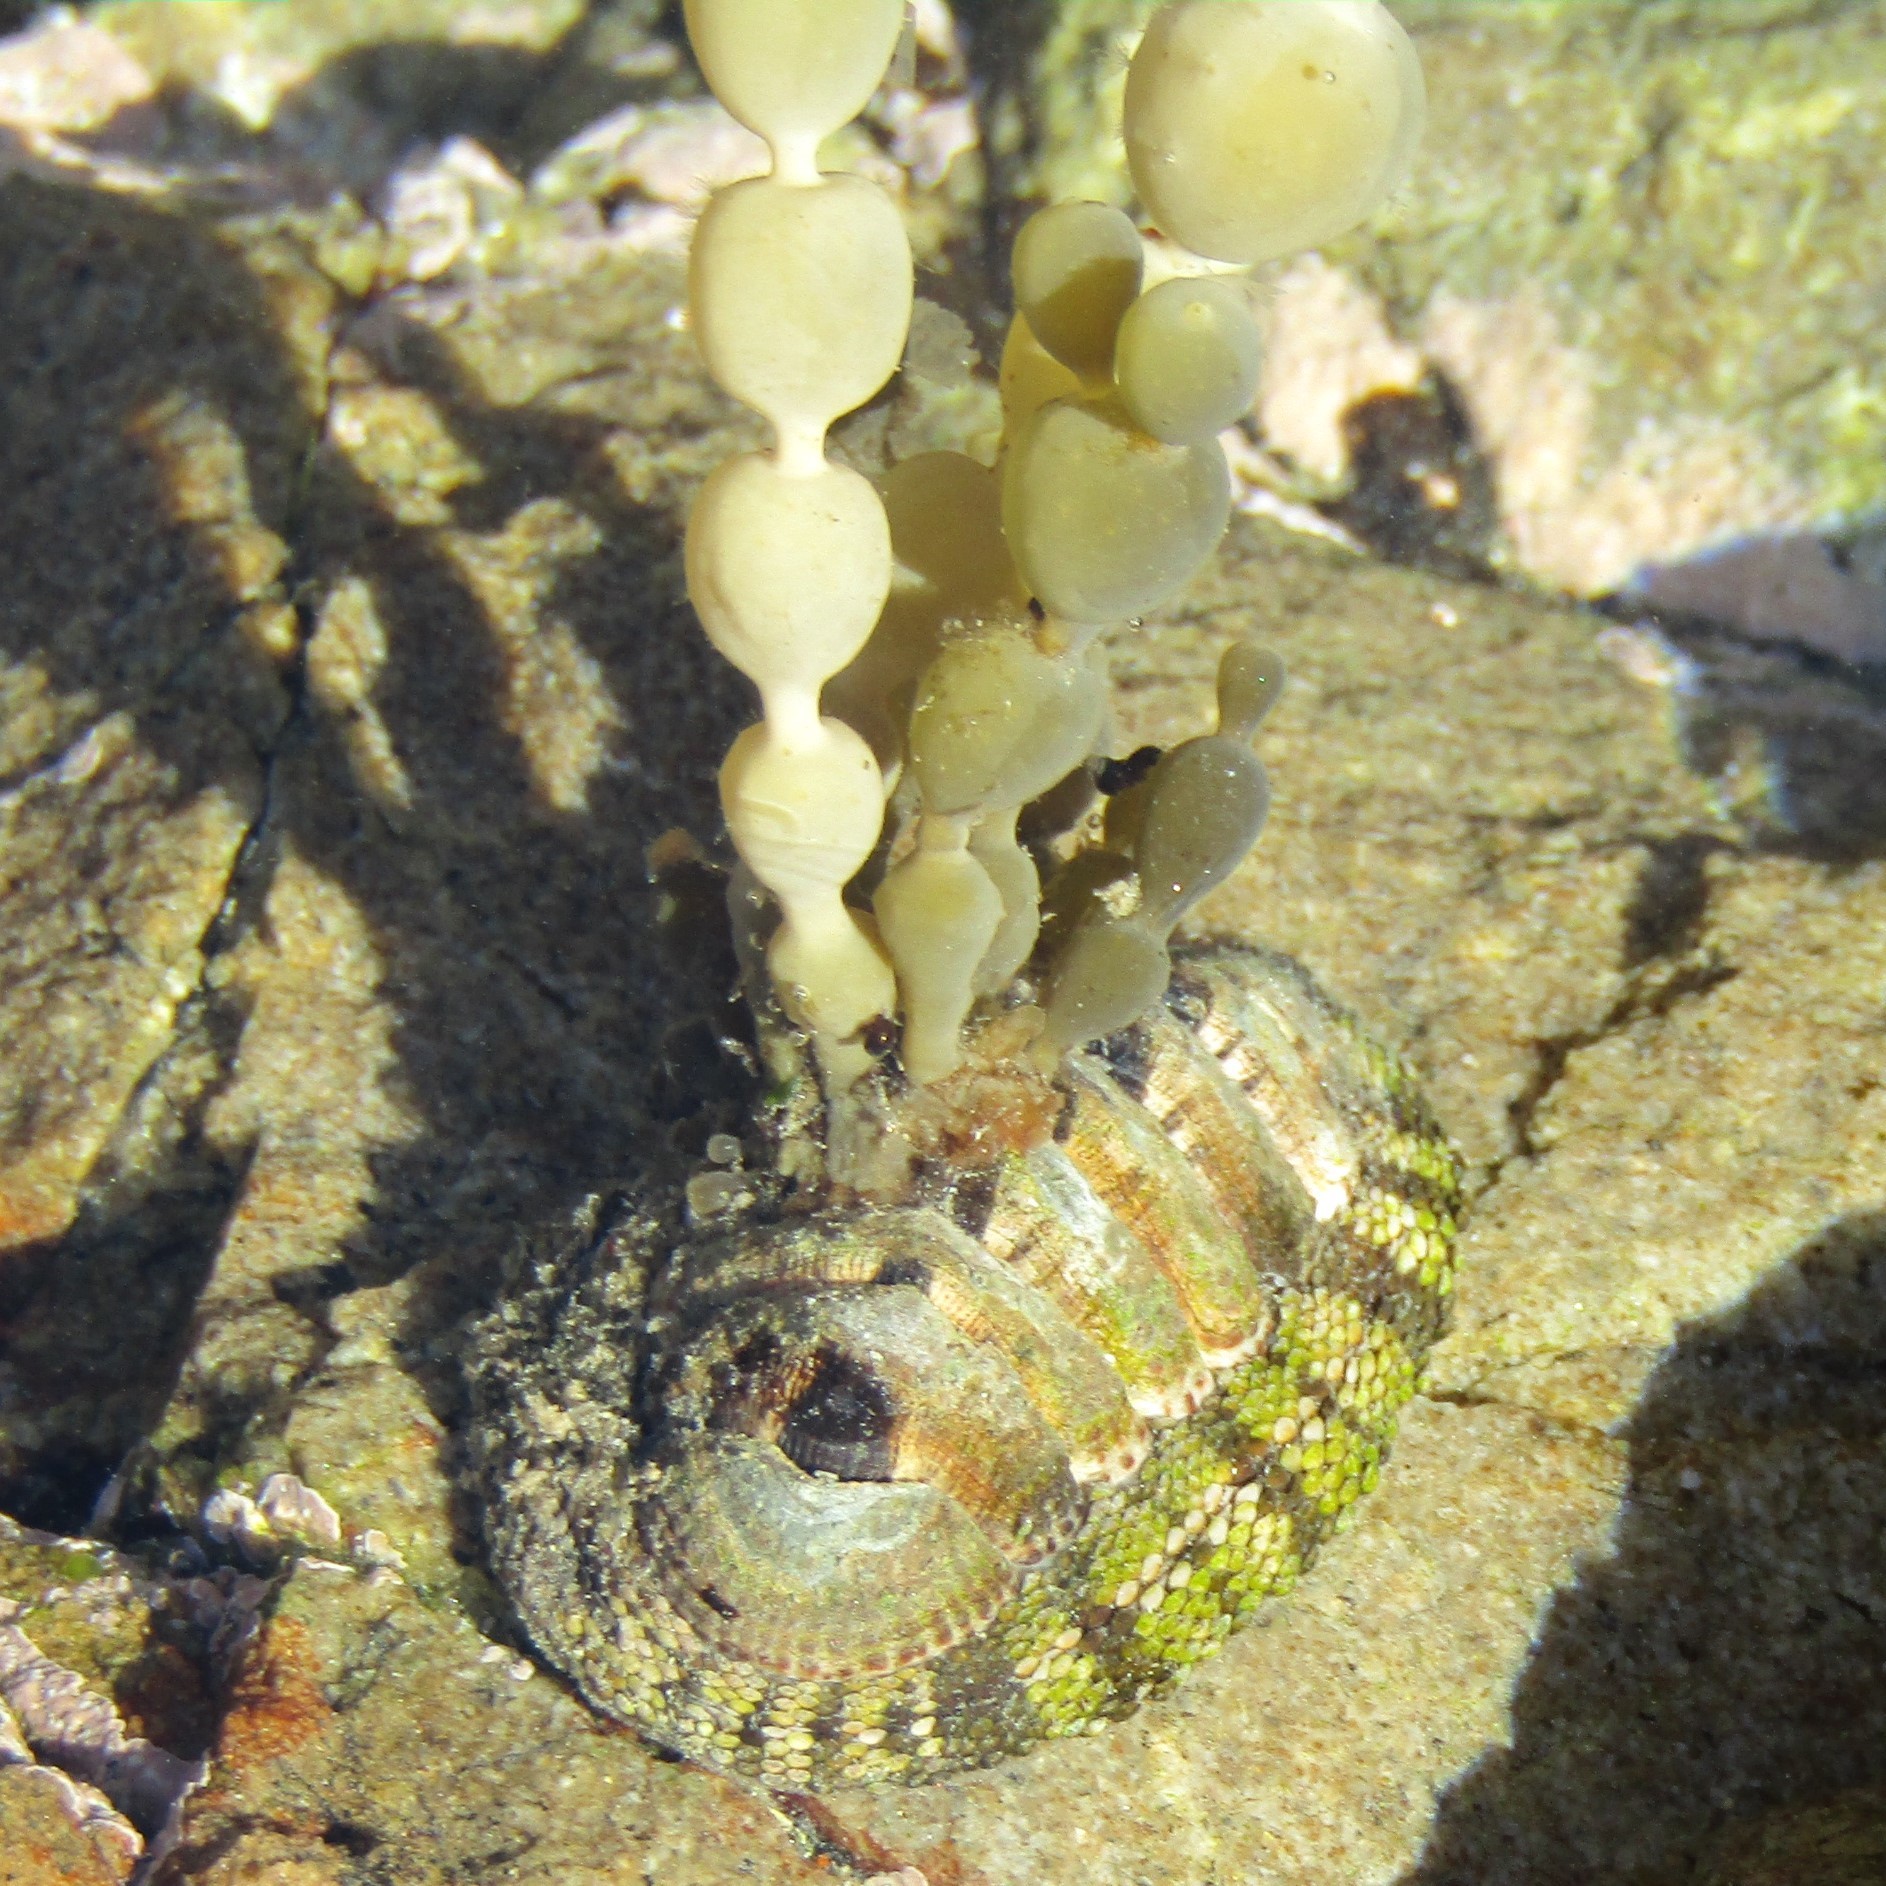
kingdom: Chromista
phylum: Ochrophyta
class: Phaeophyceae
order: Fucales
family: Hormosiraceae
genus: Hormosira
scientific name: Hormosira banksii
